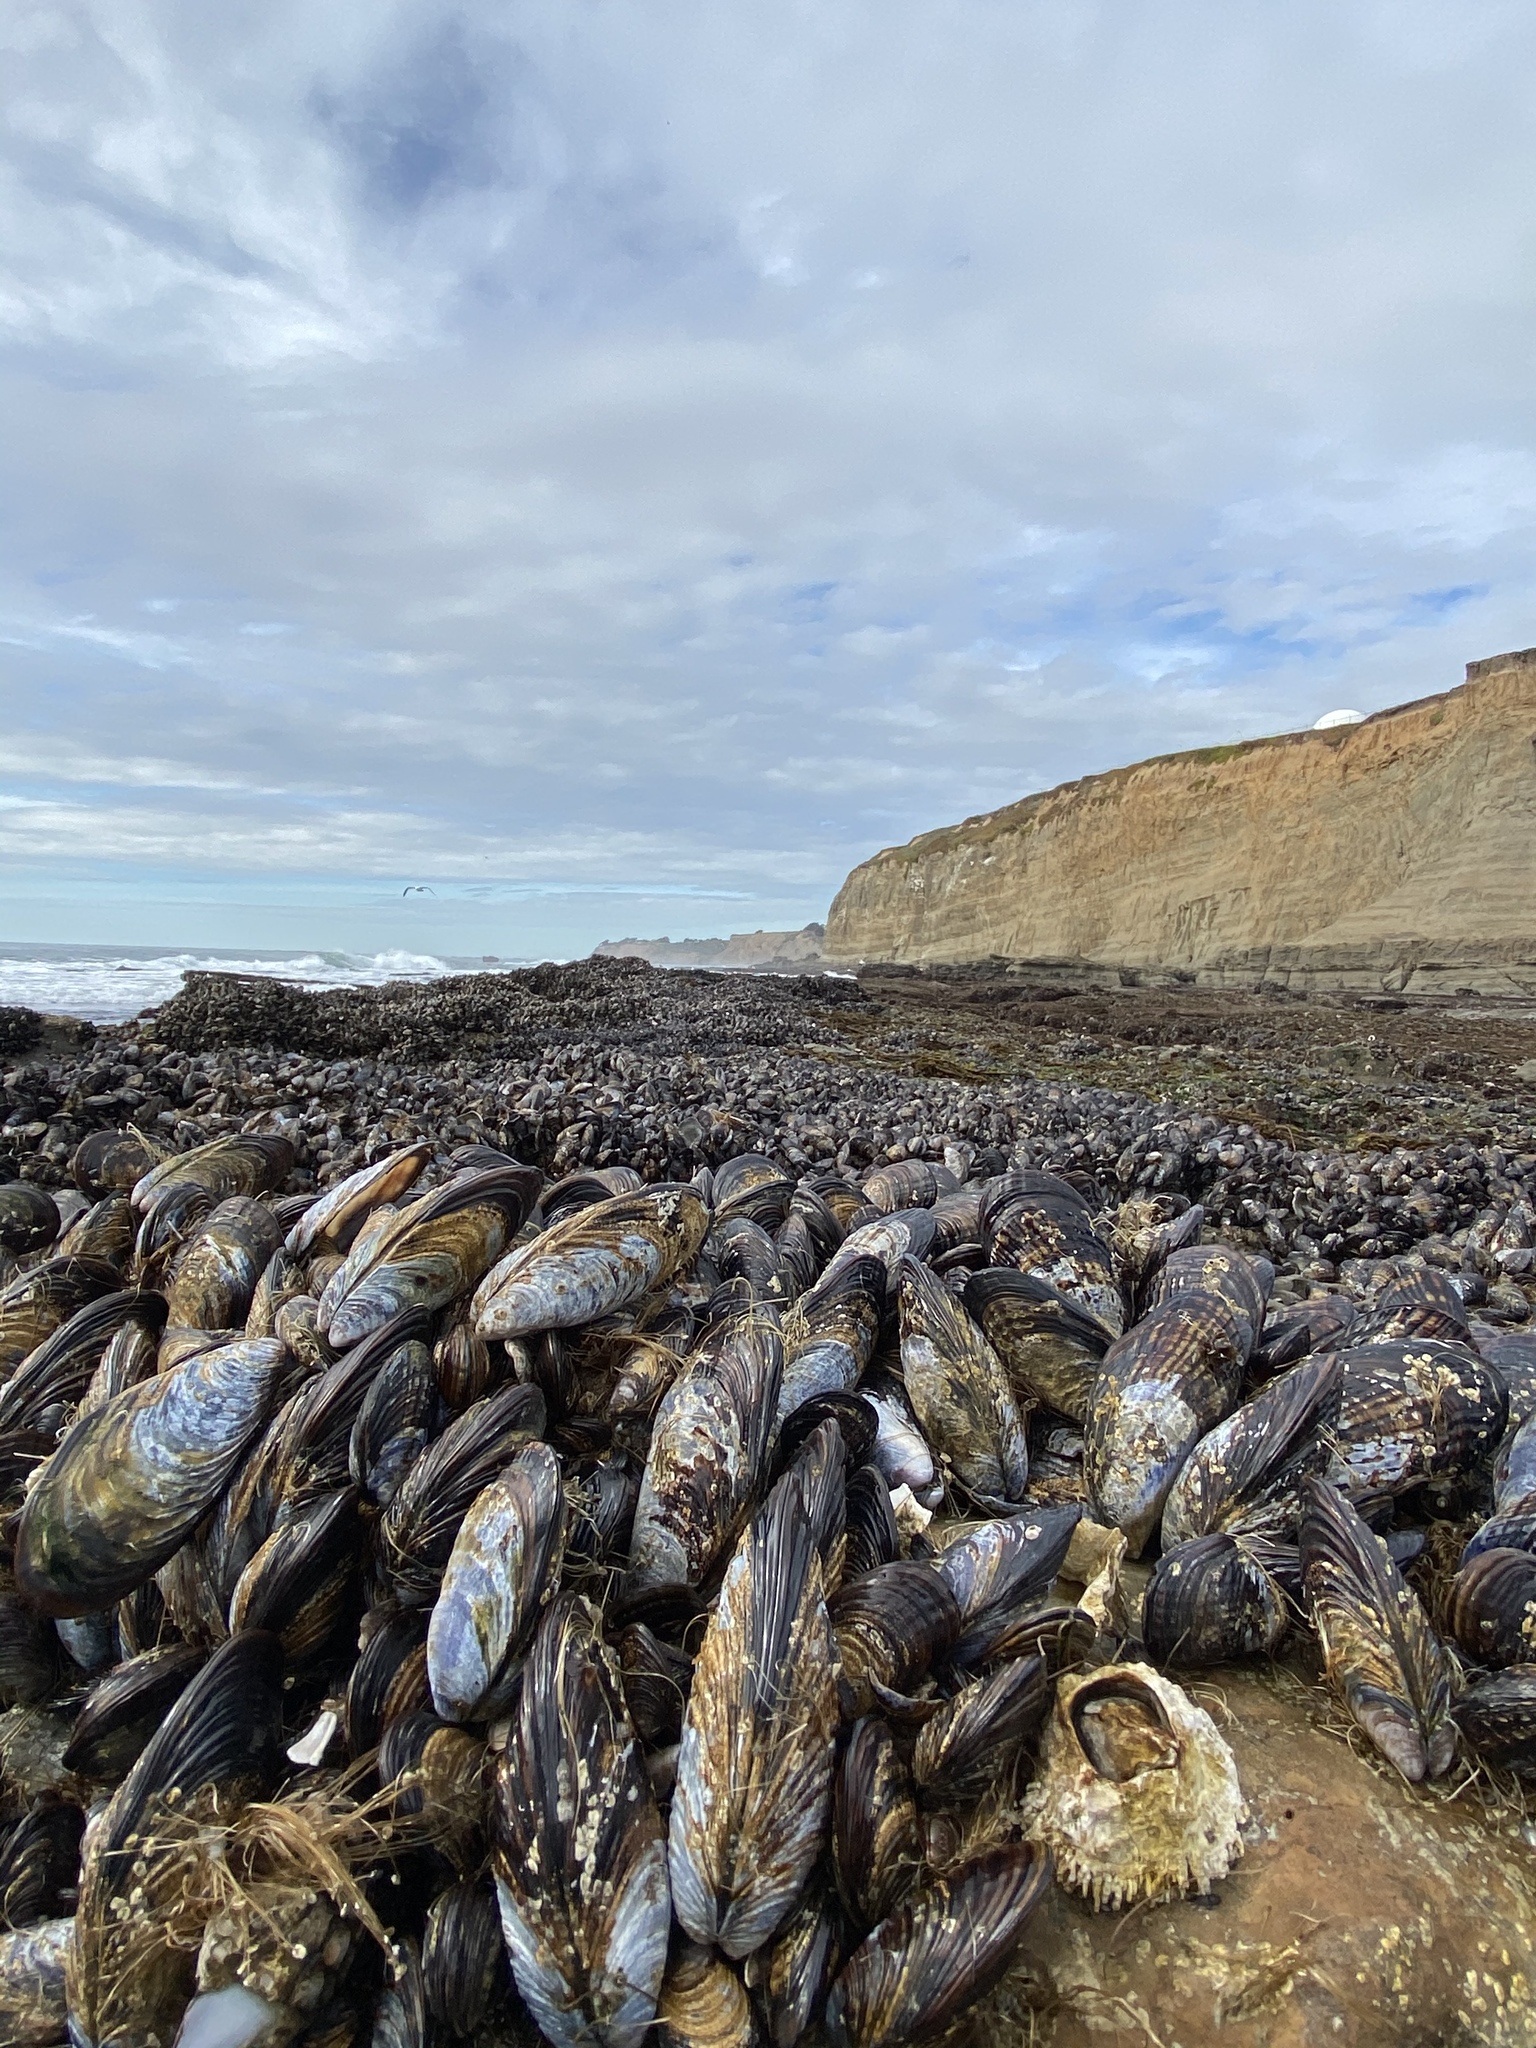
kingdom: Animalia
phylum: Mollusca
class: Bivalvia
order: Mytilida
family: Mytilidae
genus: Mytilus
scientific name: Mytilus californianus
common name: California mussel
